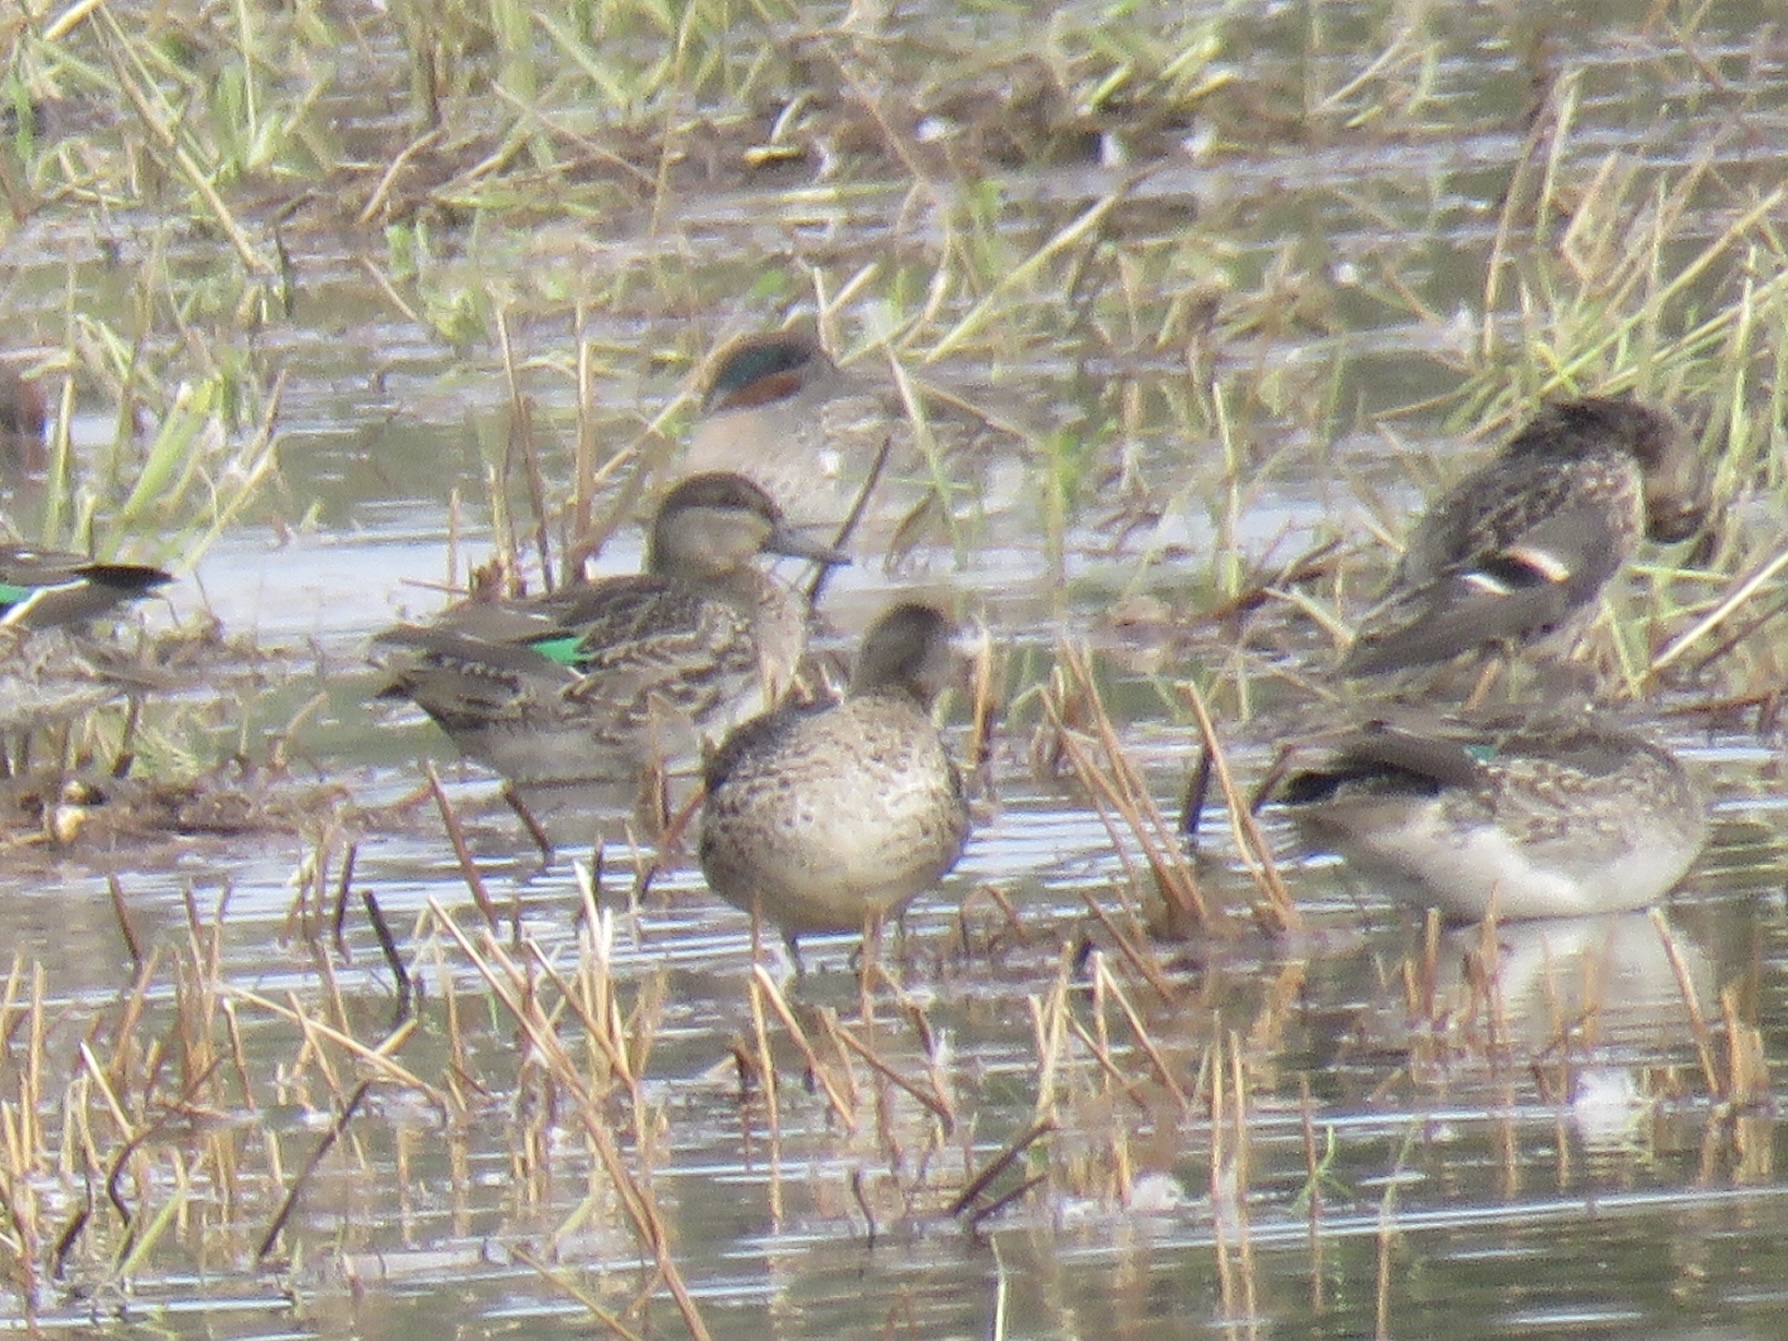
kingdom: Animalia
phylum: Chordata
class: Aves
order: Anseriformes
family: Anatidae
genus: Anas
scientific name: Anas crecca
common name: Eurasian teal
